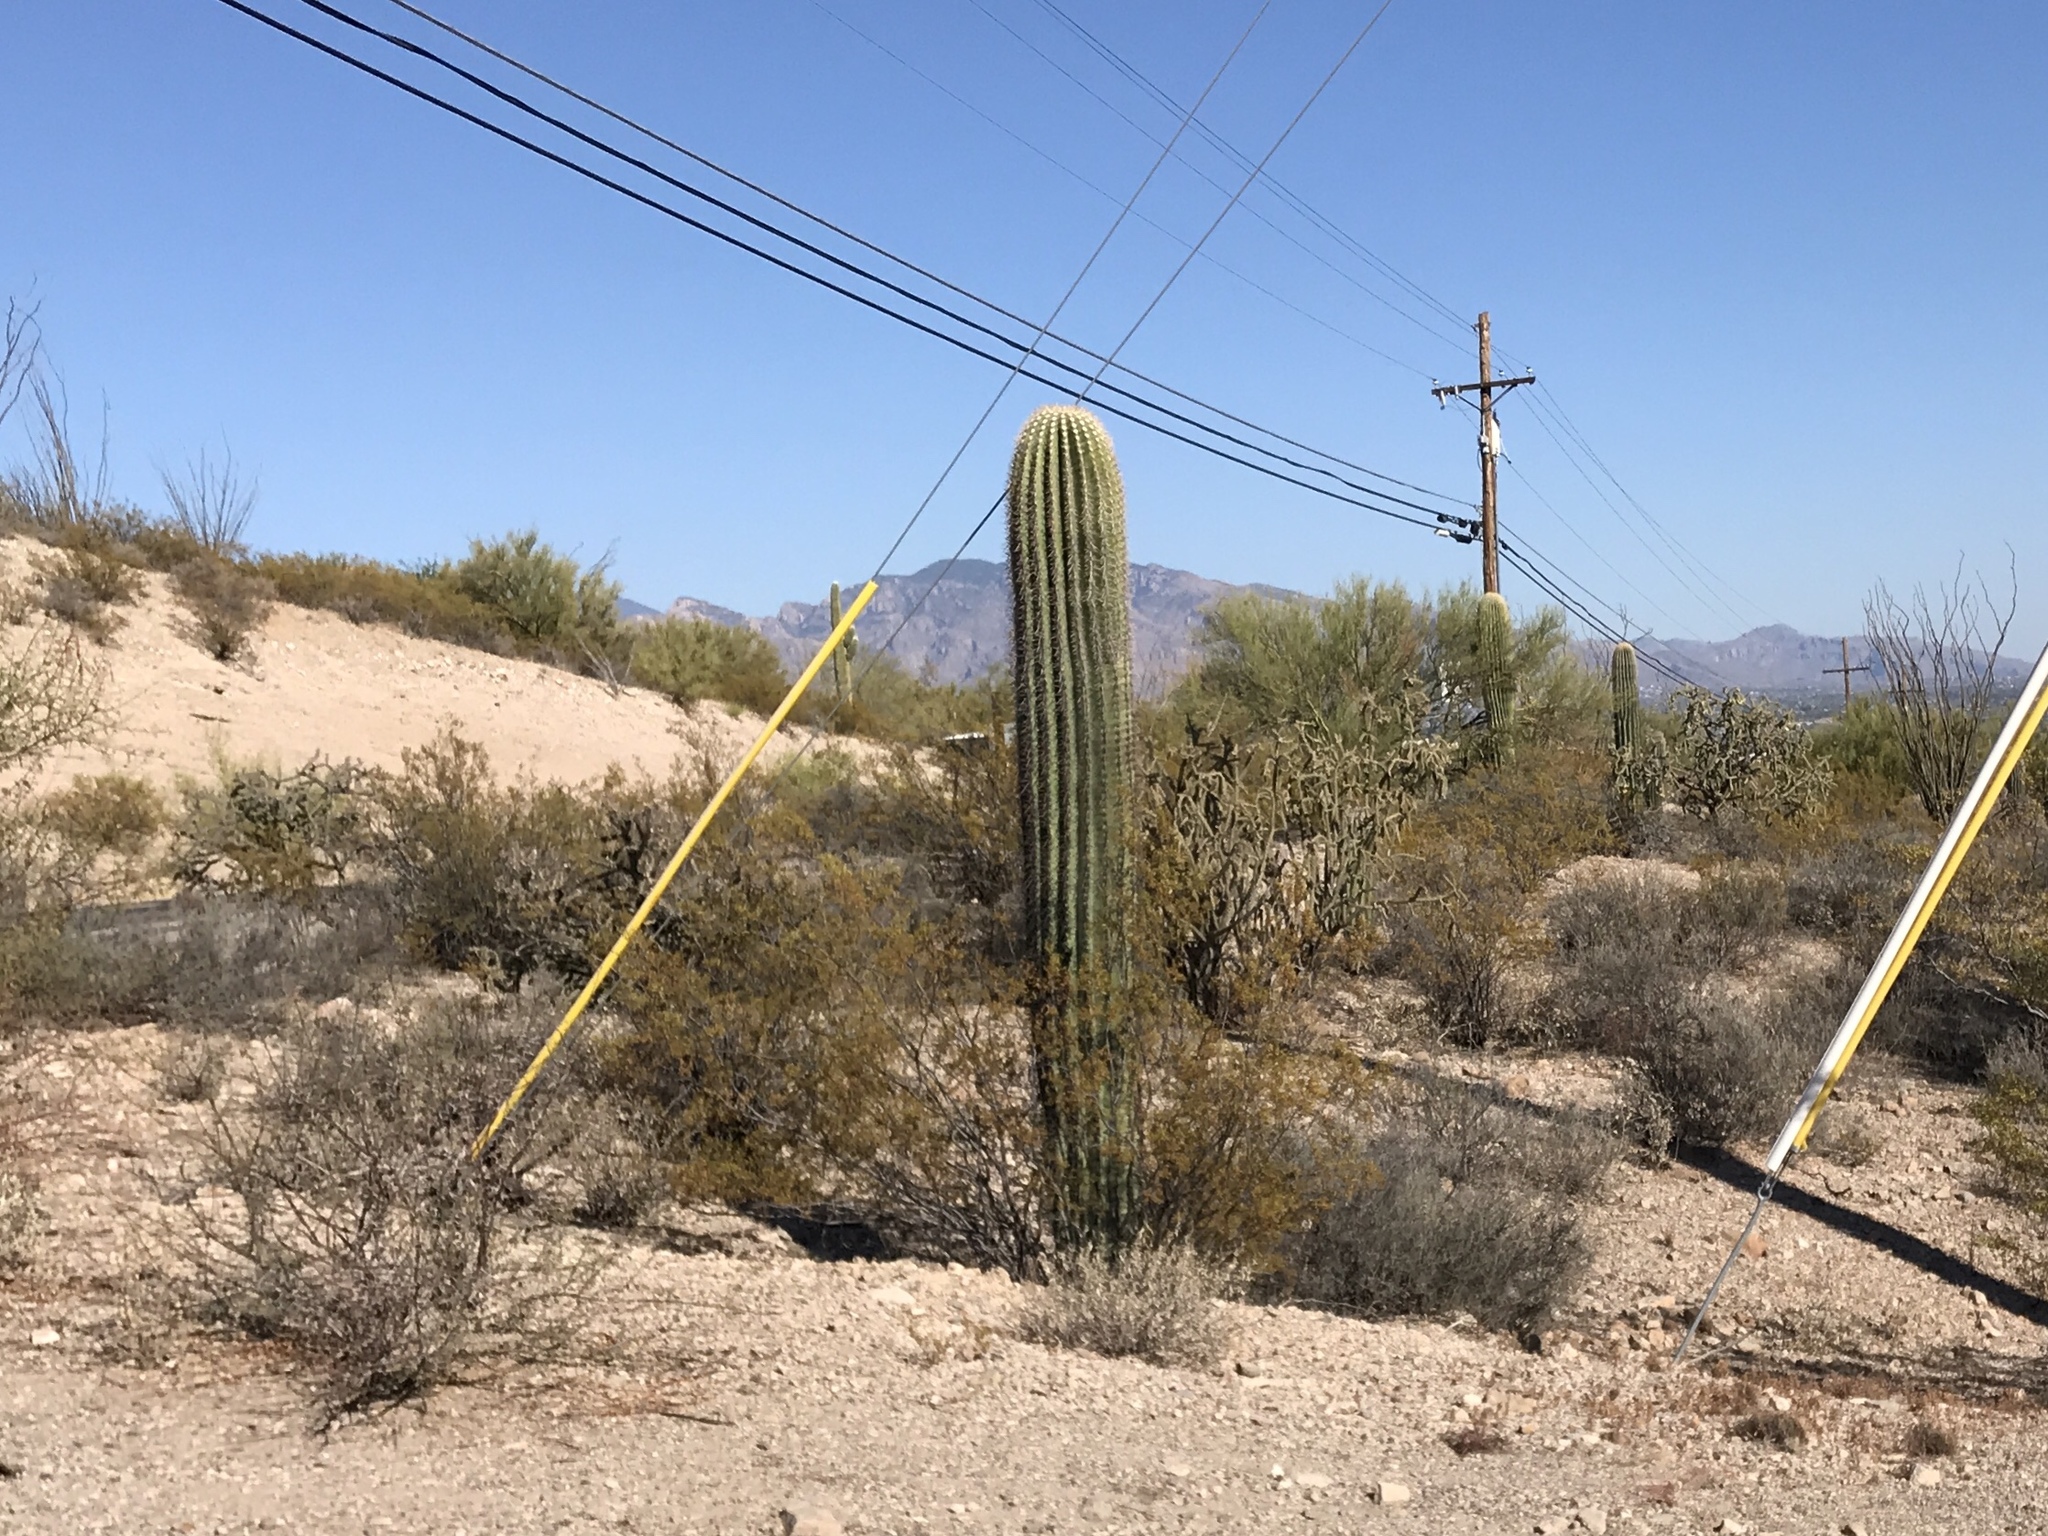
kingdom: Plantae
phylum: Tracheophyta
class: Magnoliopsida
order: Caryophyllales
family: Cactaceae
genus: Carnegiea
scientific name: Carnegiea gigantea
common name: Saguaro
